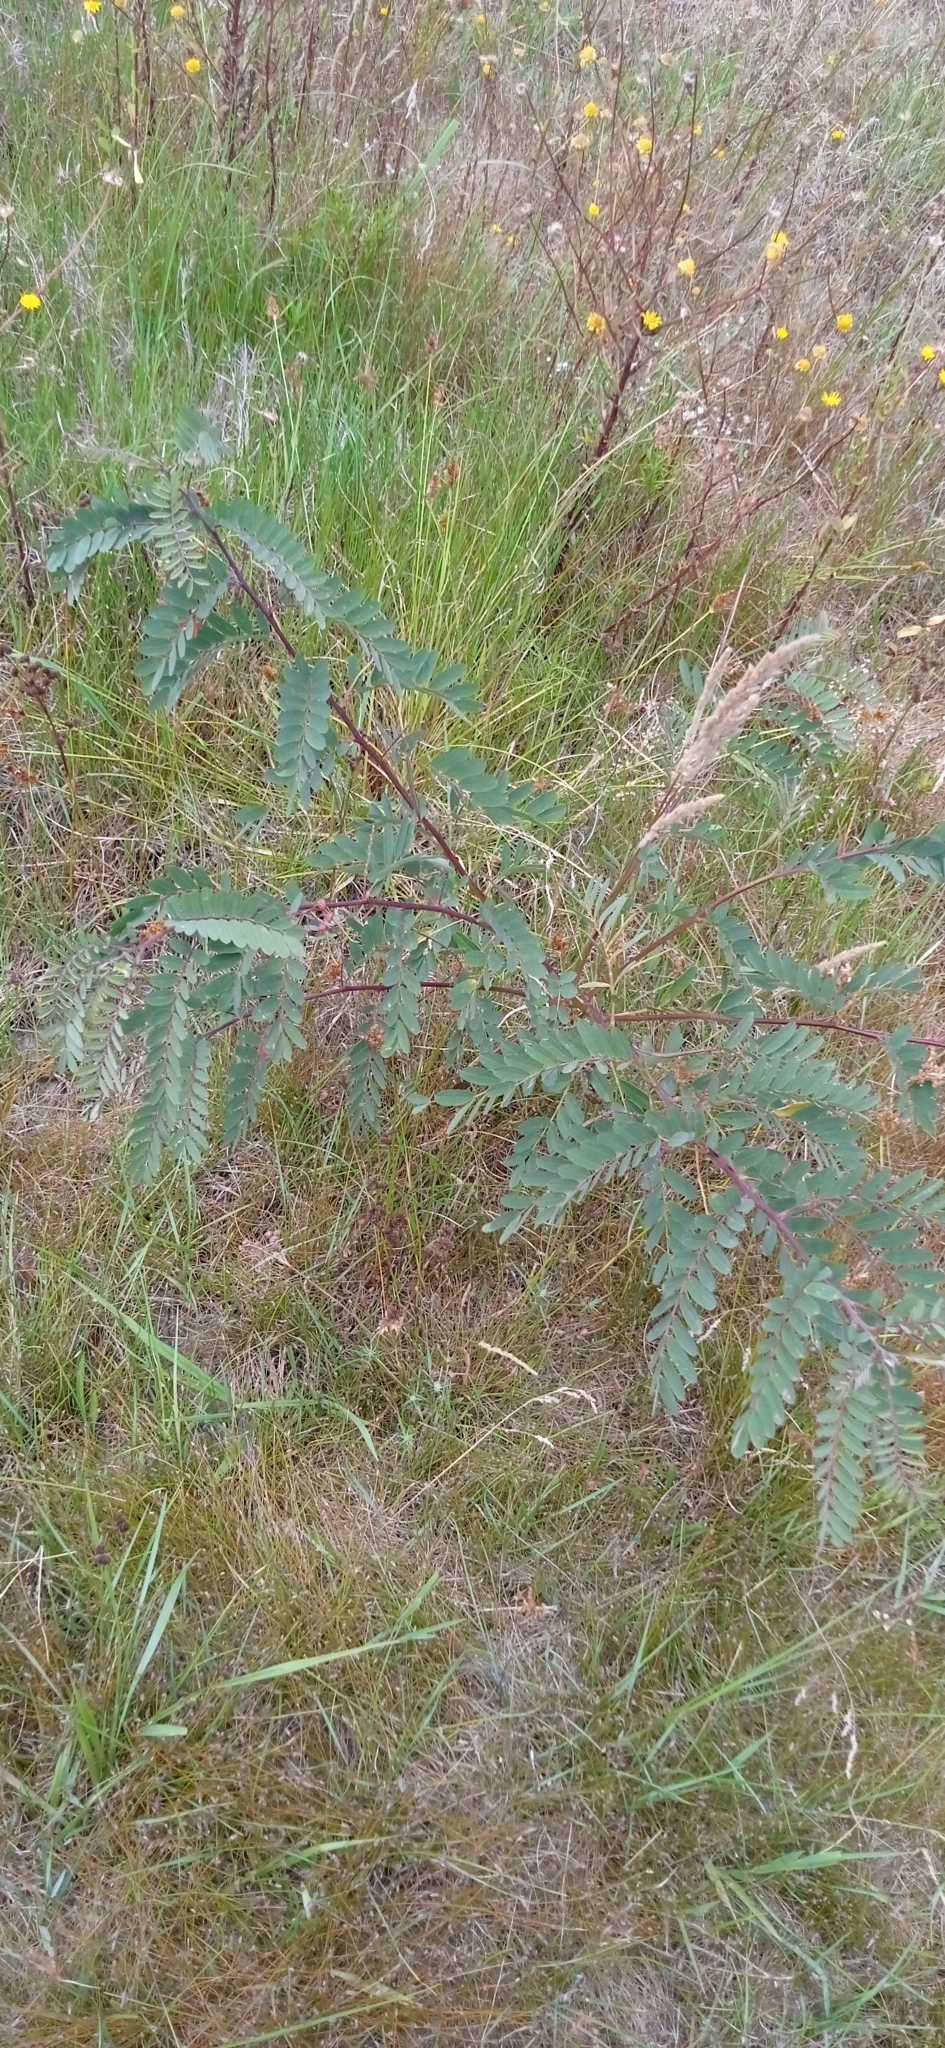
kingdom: Plantae
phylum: Tracheophyta
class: Magnoliopsida
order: Fabales
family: Fabaceae
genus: Sesbania
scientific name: Sesbania punicea
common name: Rattlebox
